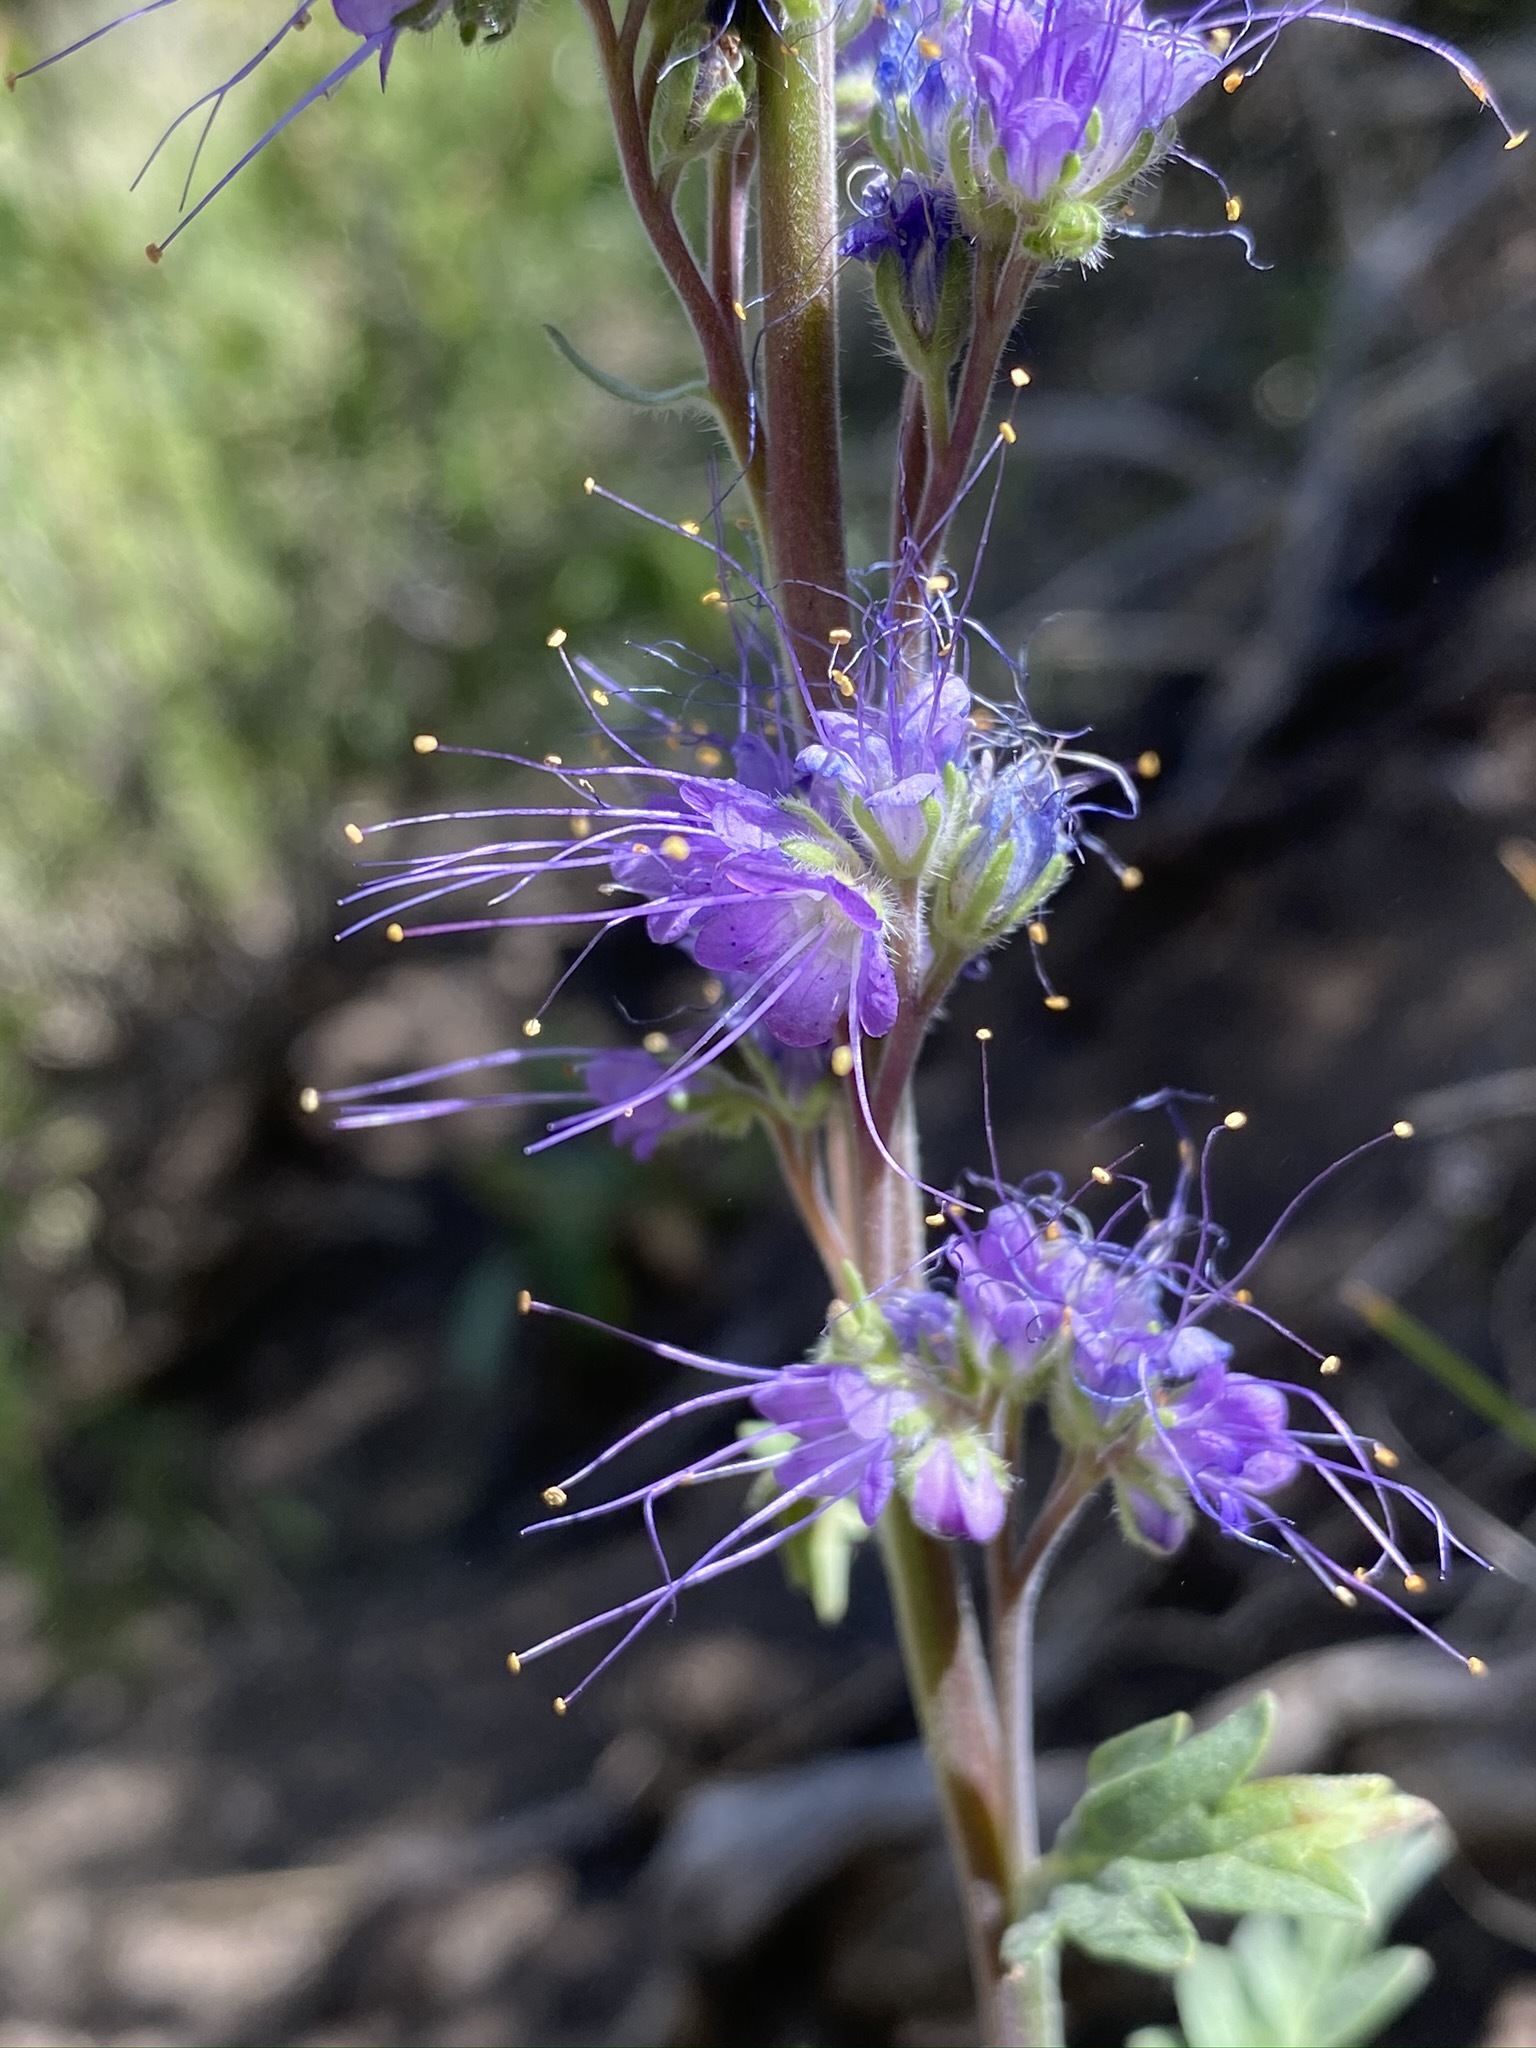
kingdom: Plantae
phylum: Tracheophyta
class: Magnoliopsida
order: Boraginales
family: Hydrophyllaceae
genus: Phacelia
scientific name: Phacelia sericea
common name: Silky phacelia
